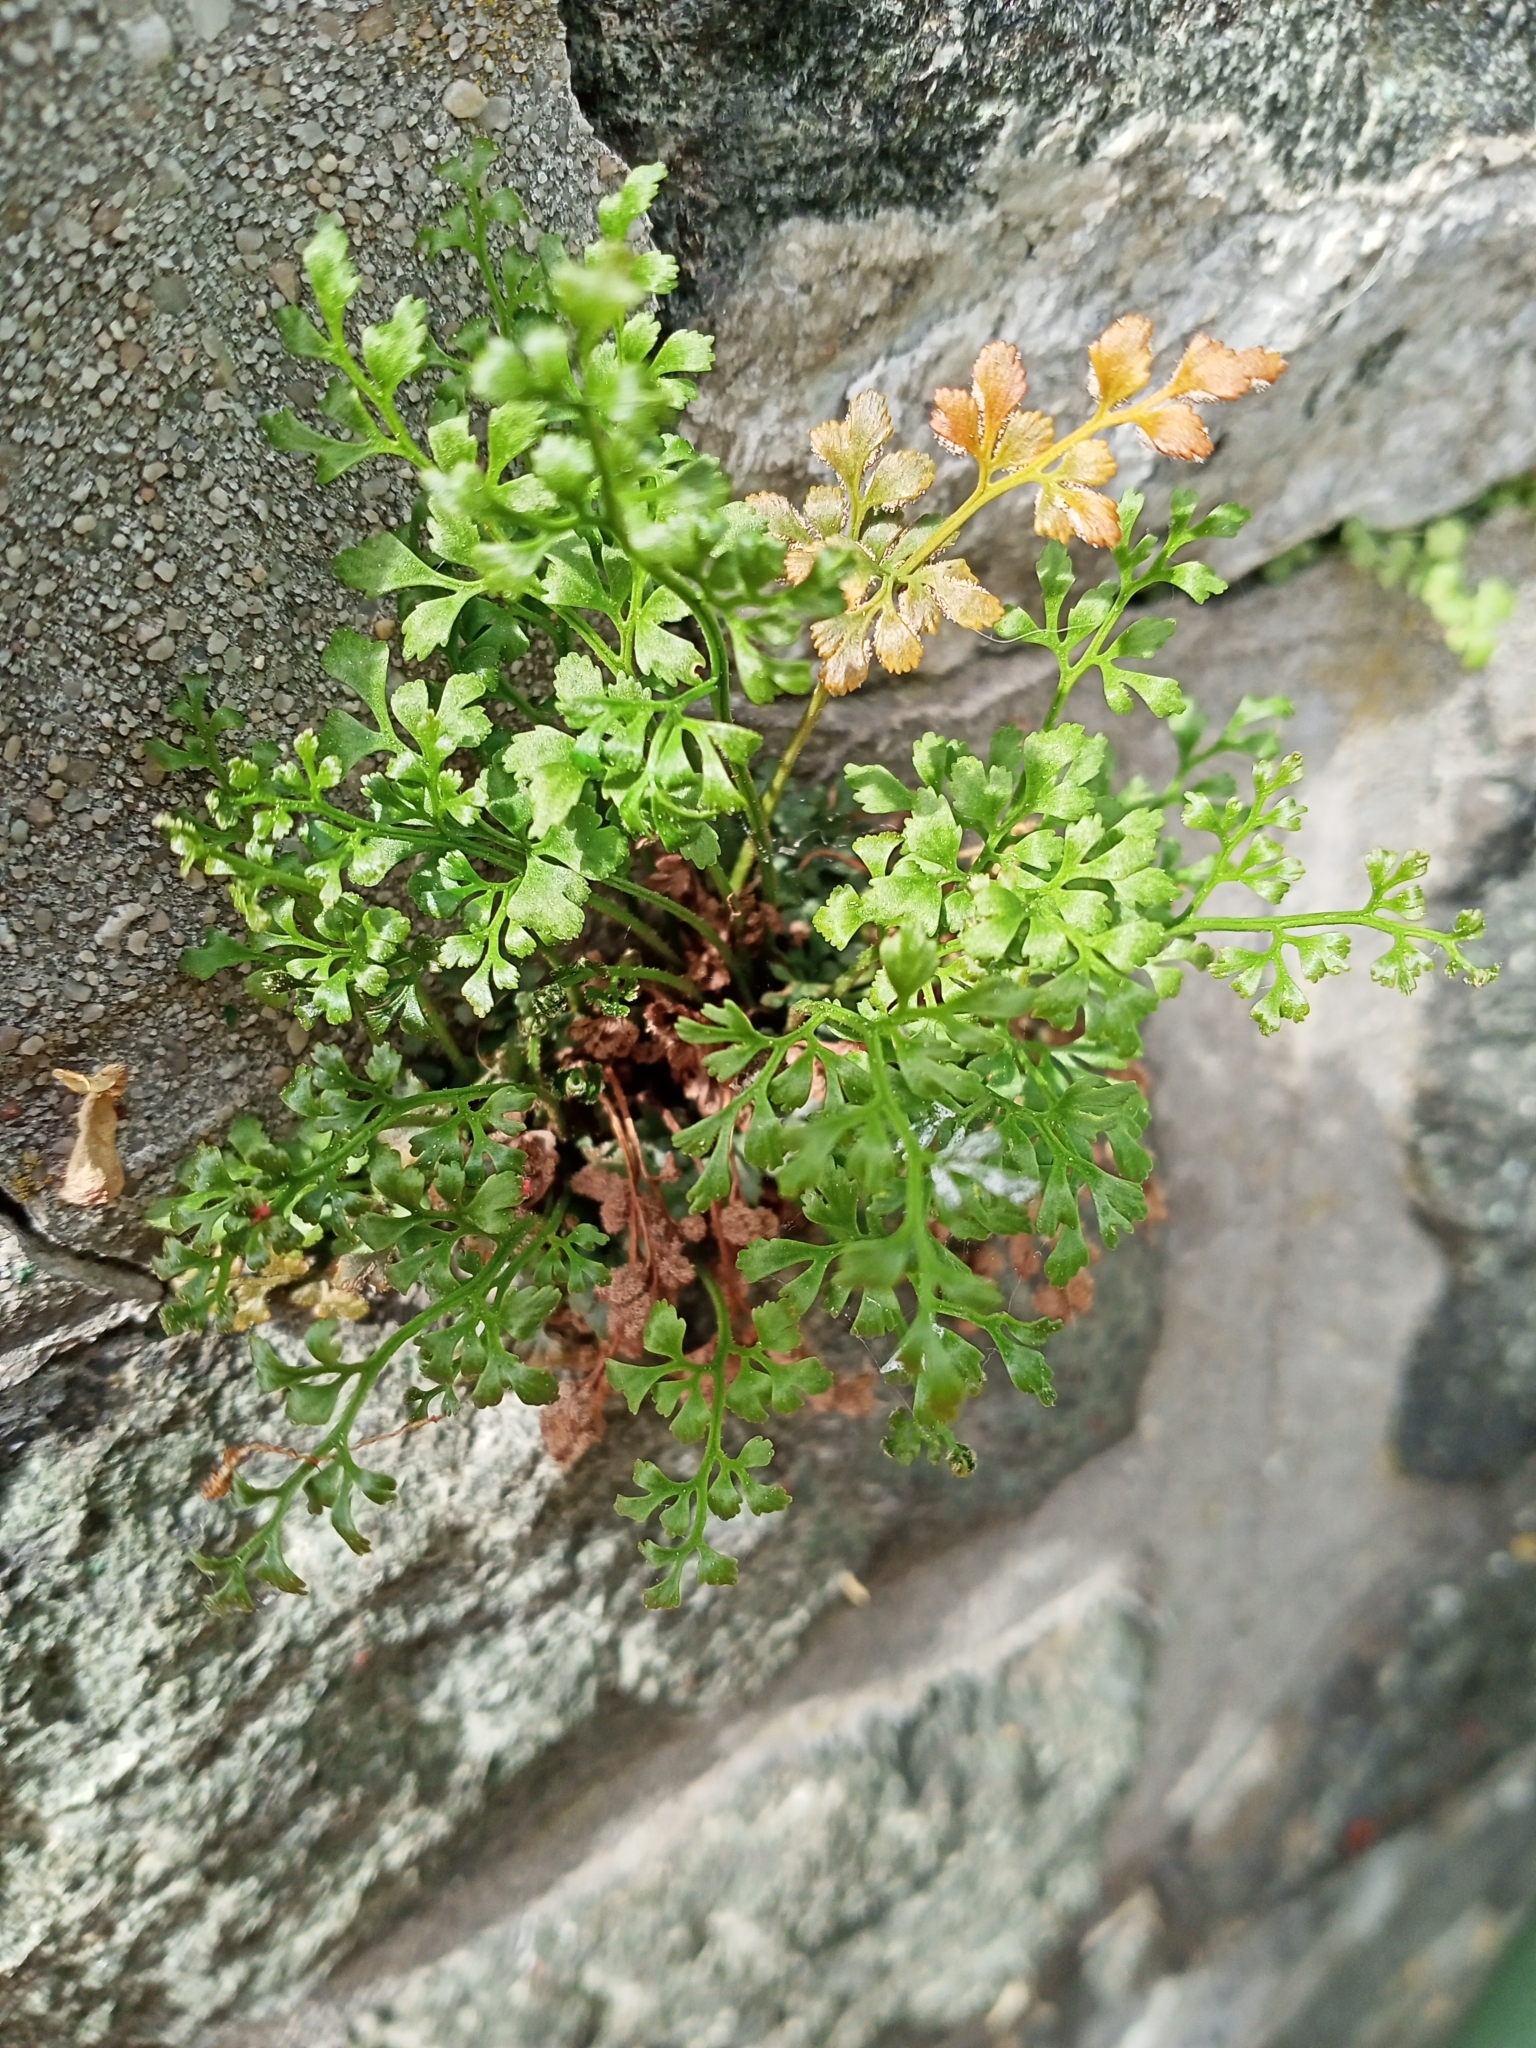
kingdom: Plantae
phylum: Tracheophyta
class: Polypodiopsida
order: Polypodiales
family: Aspleniaceae
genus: Asplenium
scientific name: Asplenium ruta-muraria
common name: Wall-rue
